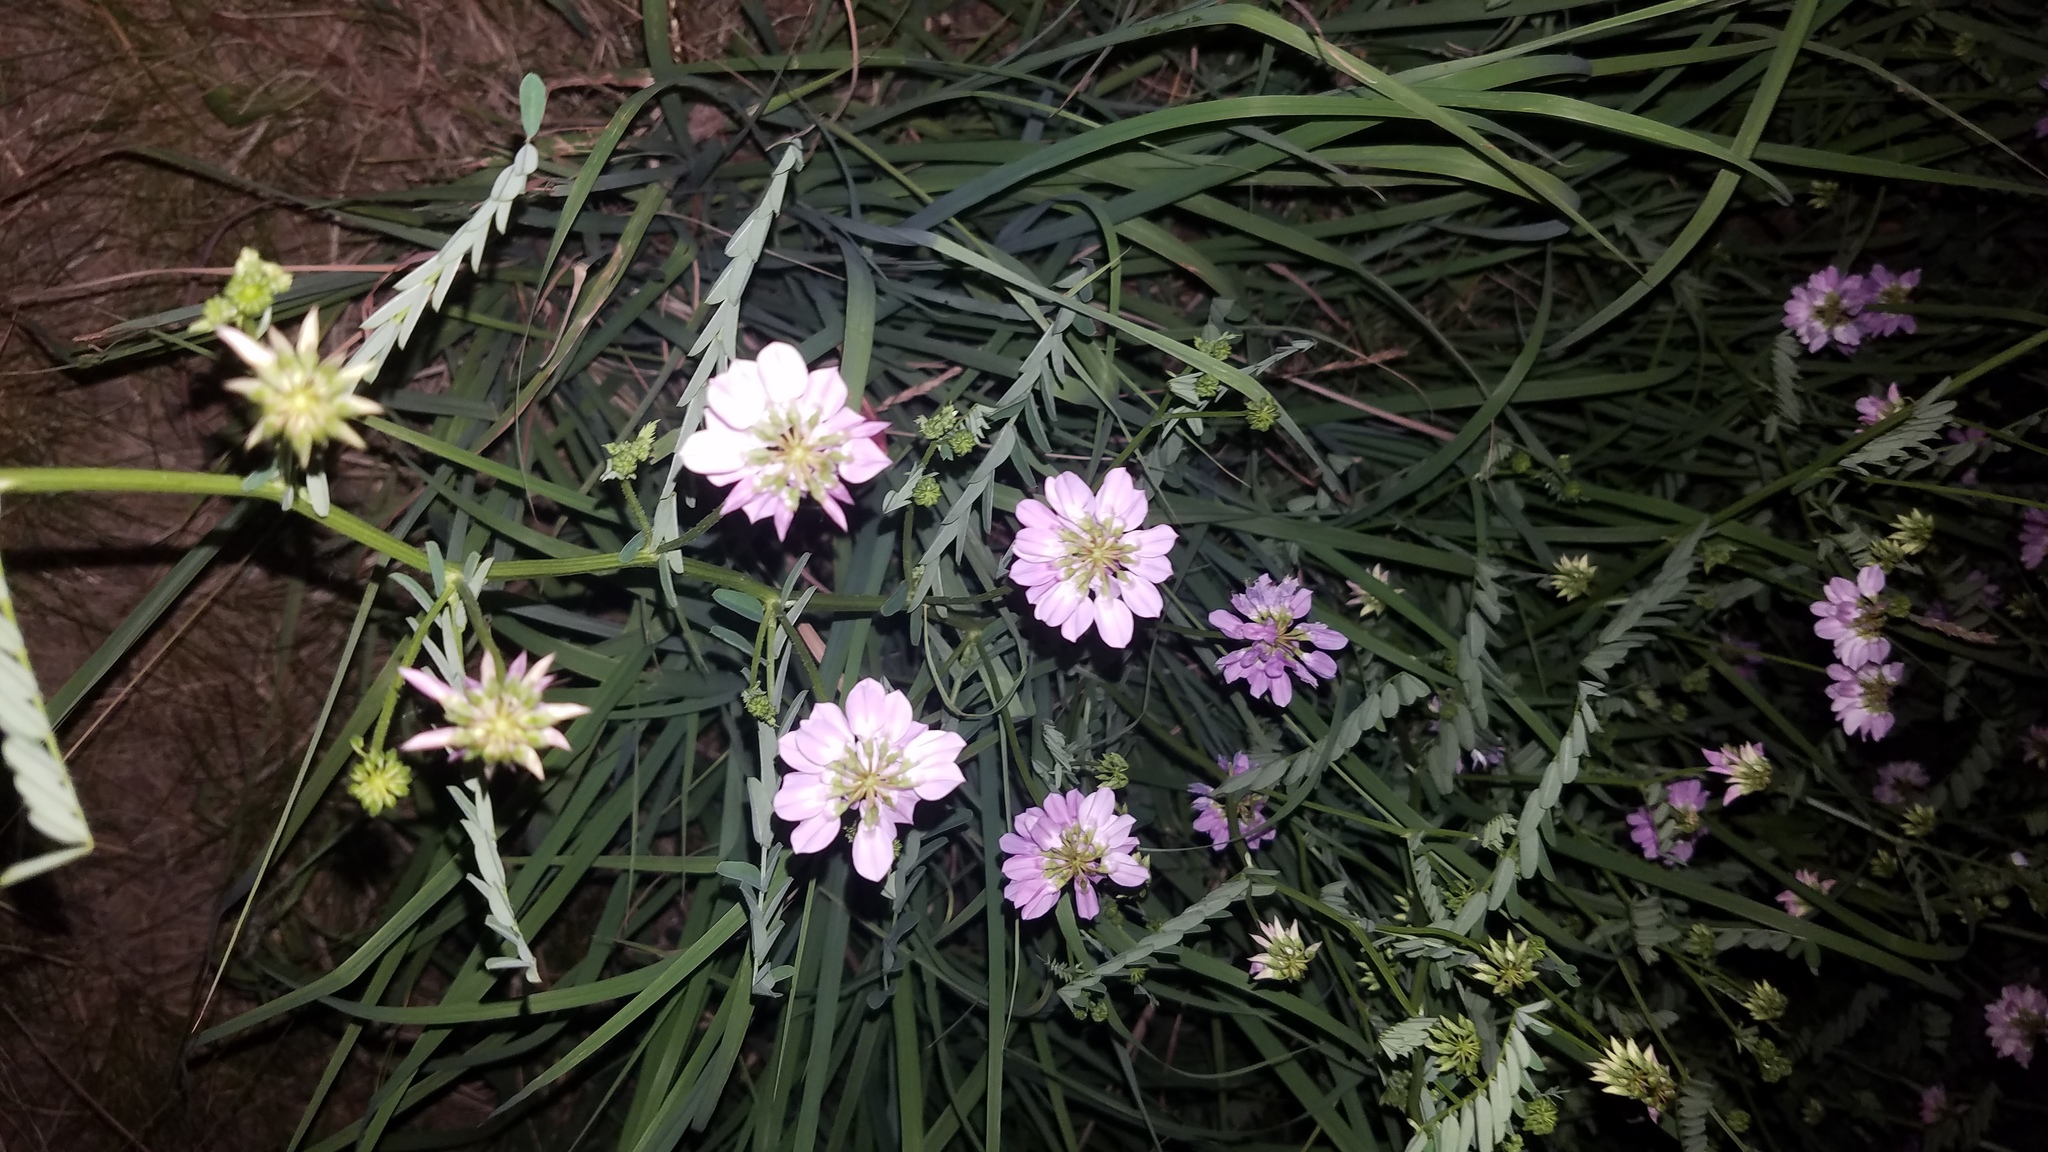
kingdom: Plantae
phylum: Tracheophyta
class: Magnoliopsida
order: Fabales
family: Fabaceae
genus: Coronilla
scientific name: Coronilla varia
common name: Crownvetch
